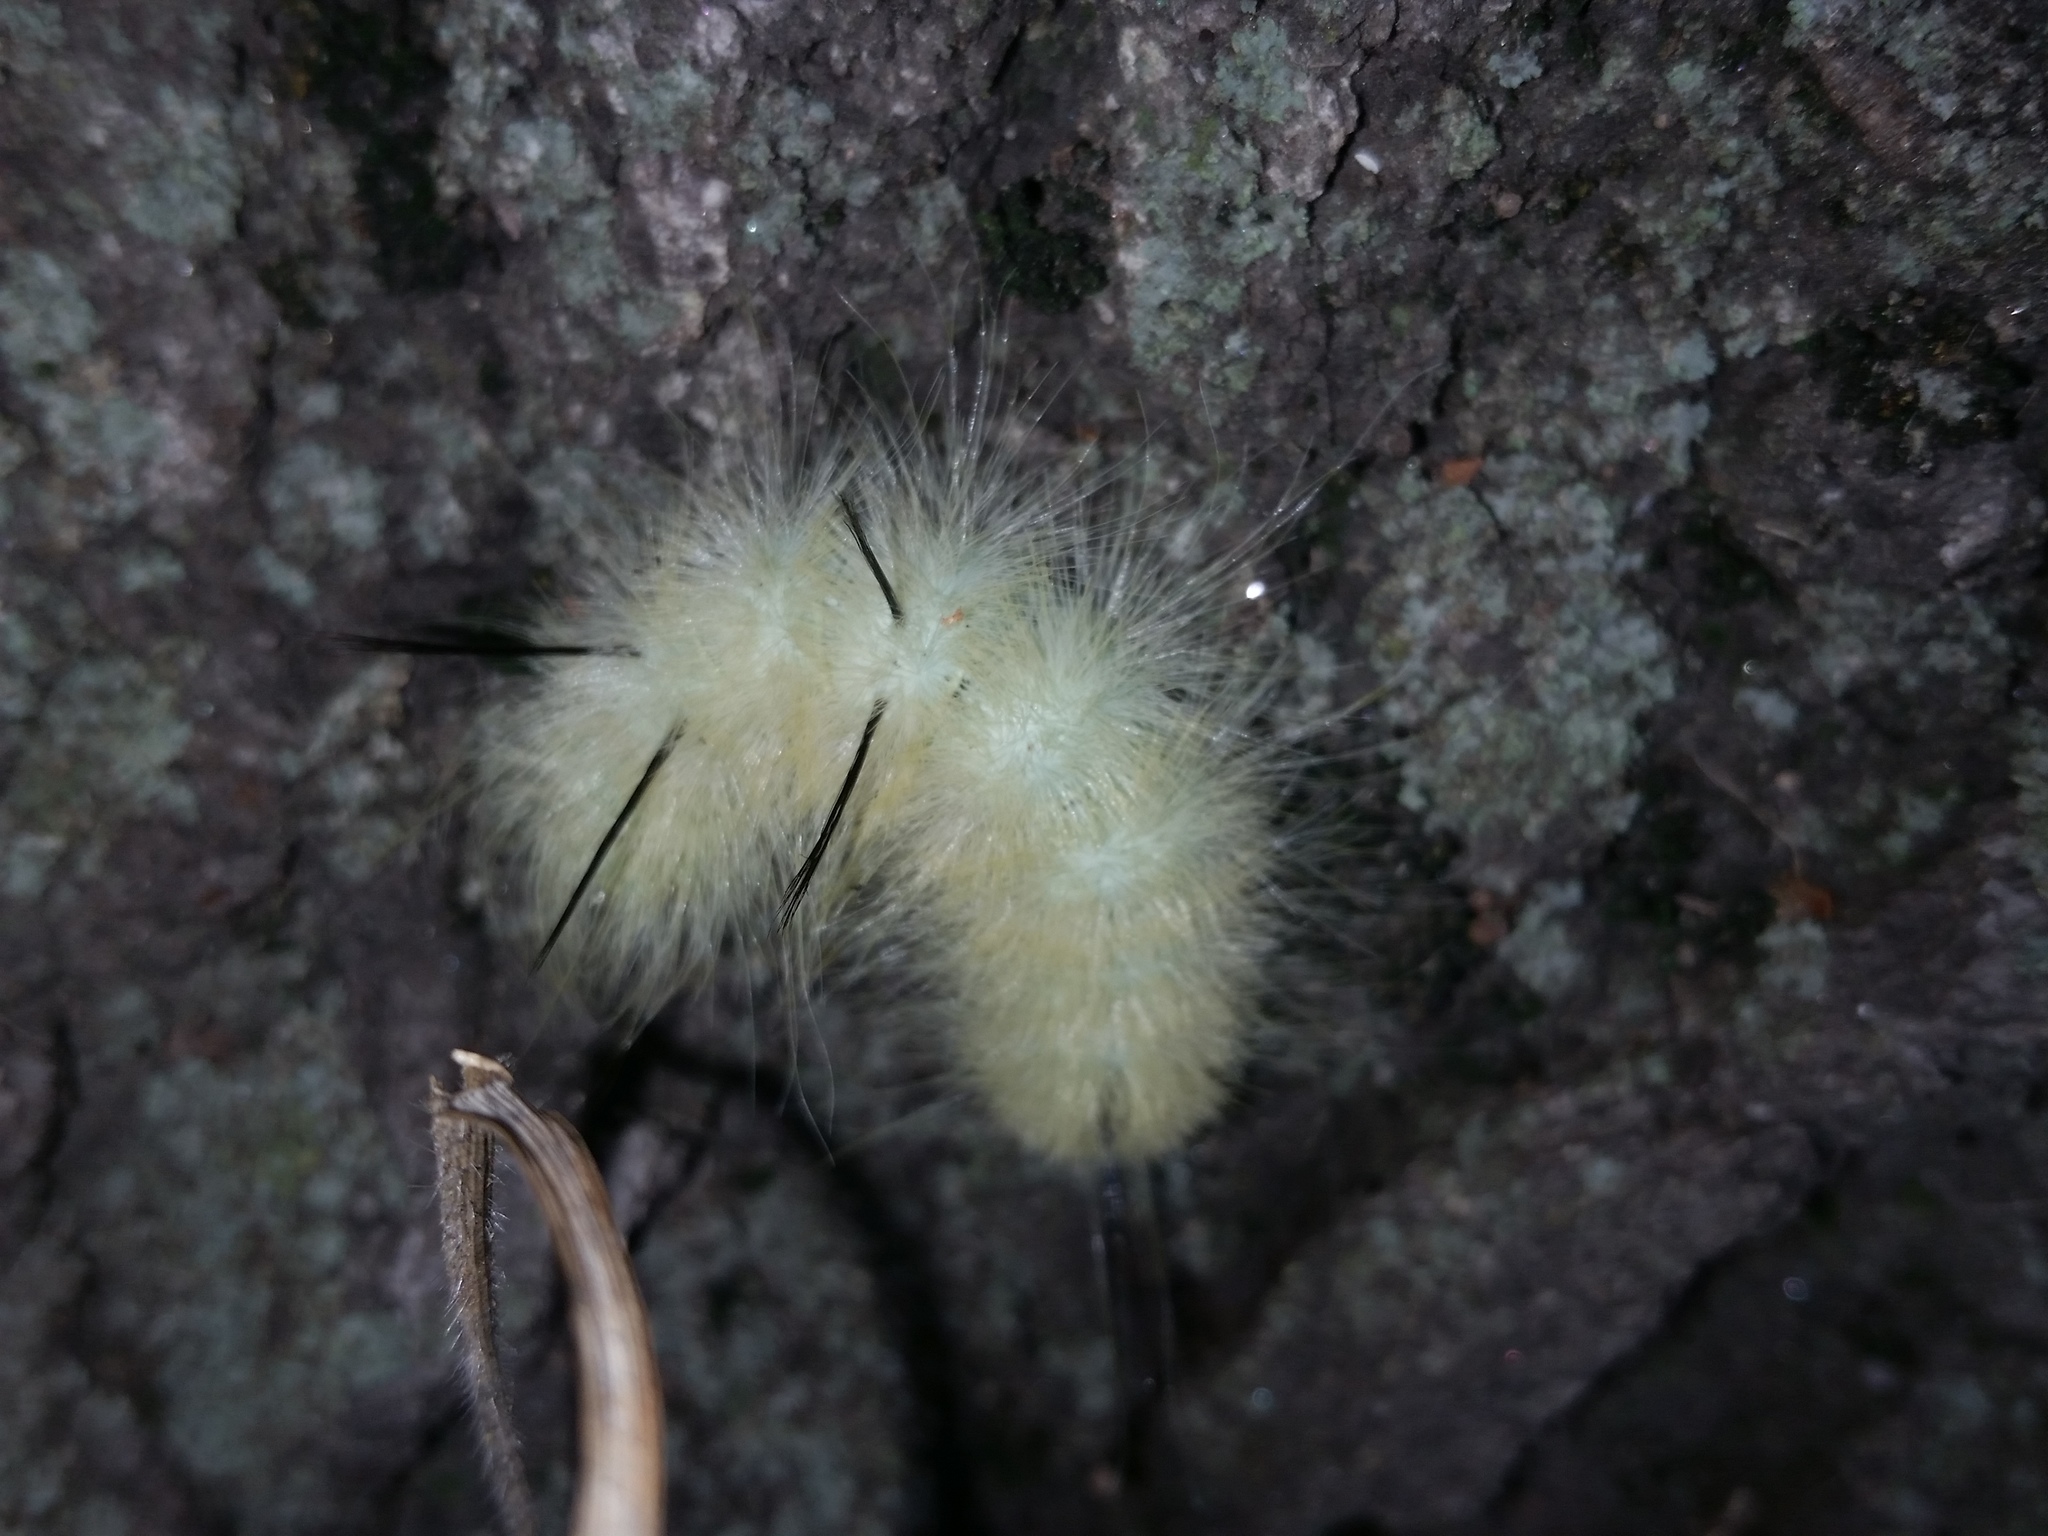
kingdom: Animalia
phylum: Arthropoda
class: Insecta
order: Lepidoptera
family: Noctuidae
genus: Acronicta
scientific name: Acronicta americana
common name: American dagger
